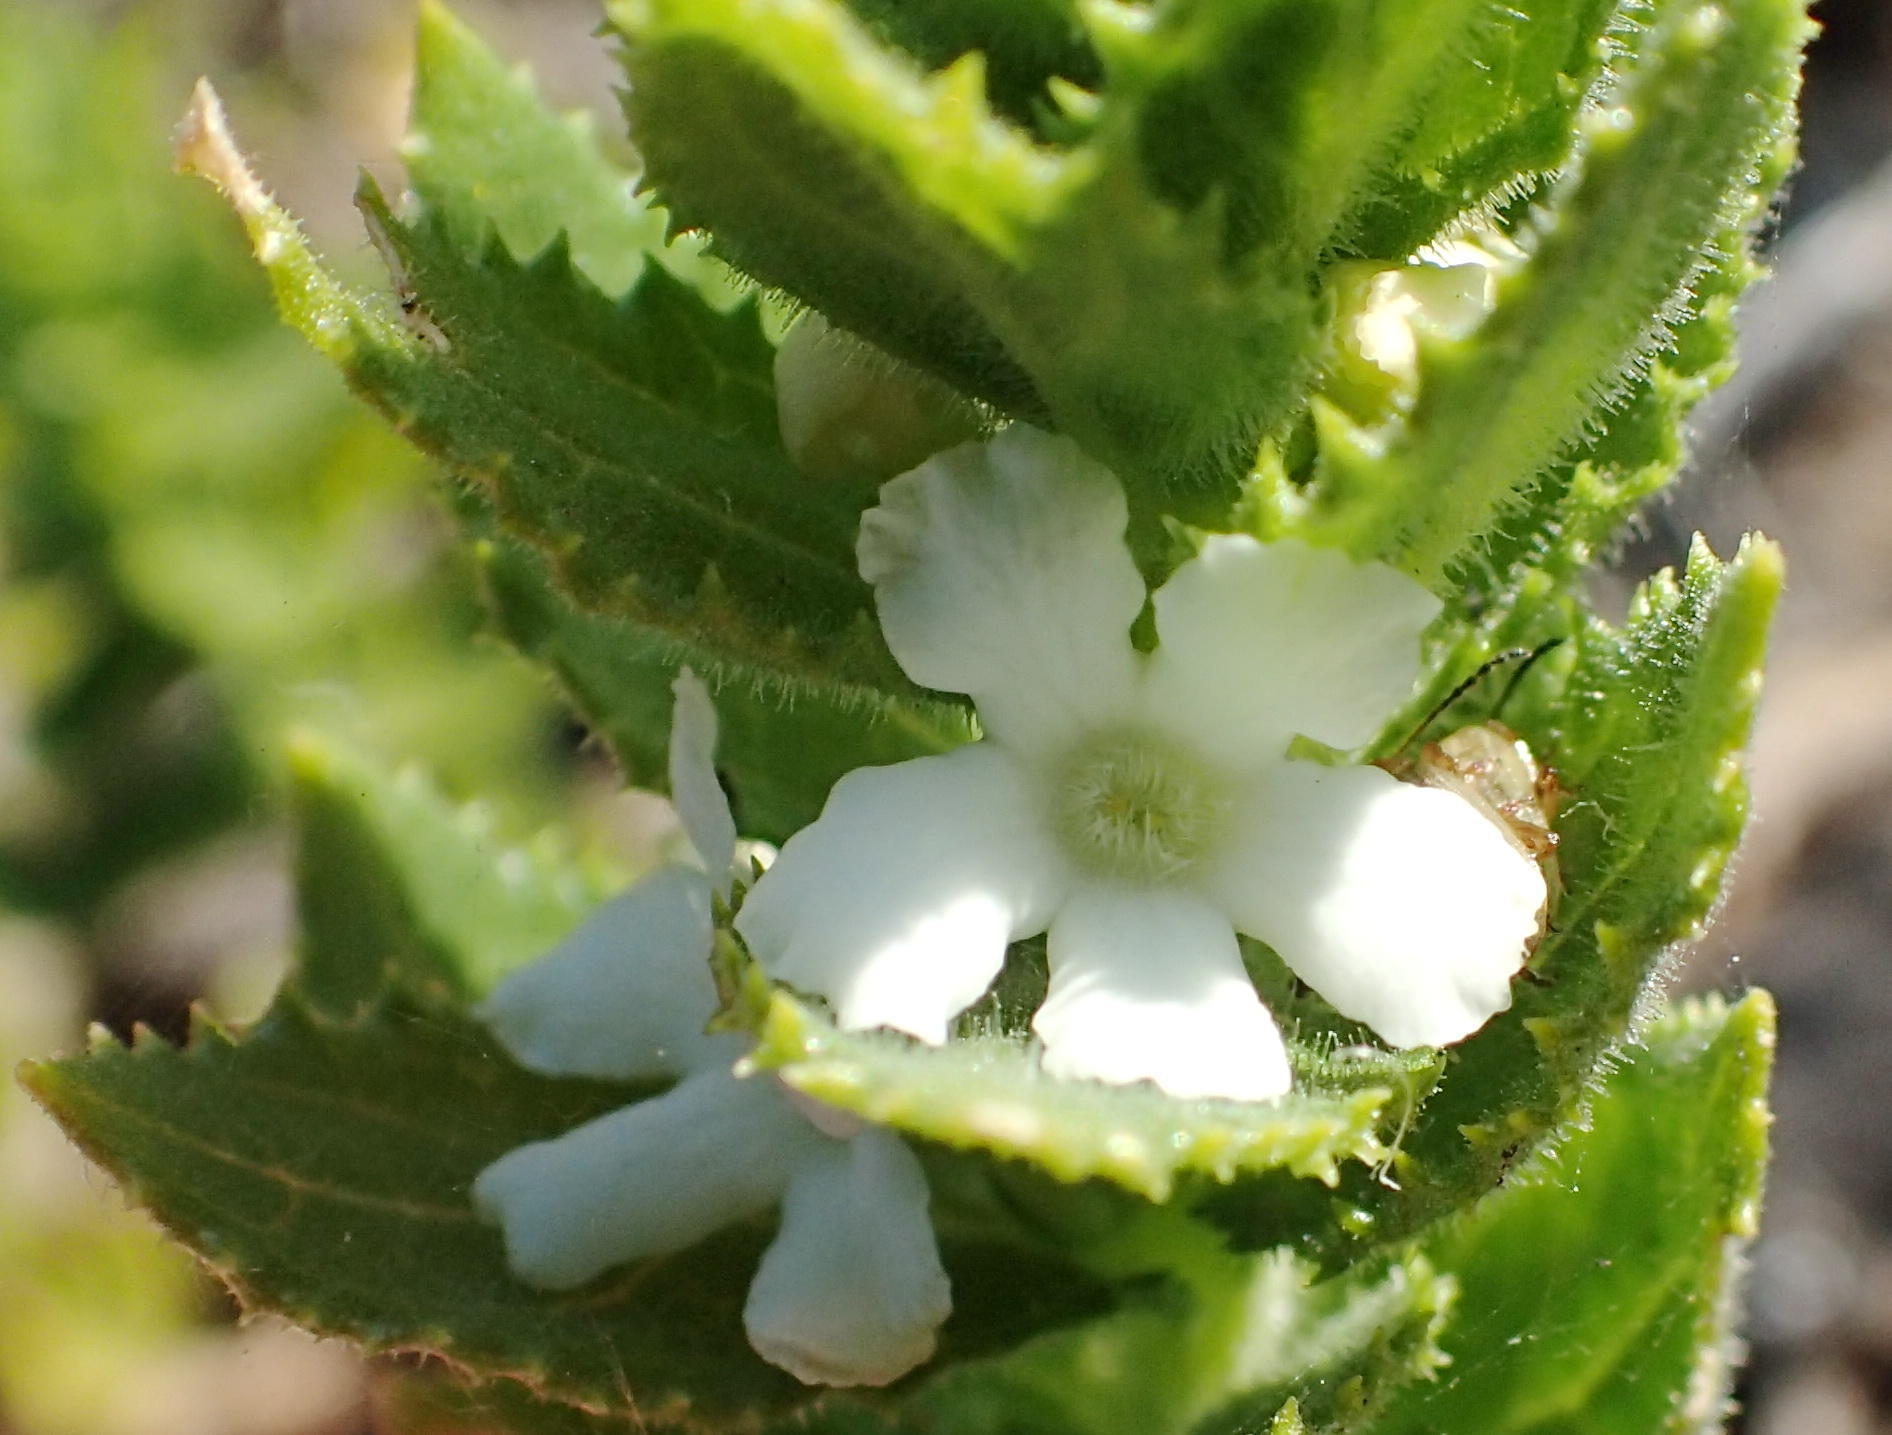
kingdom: Plantae
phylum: Tracheophyta
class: Magnoliopsida
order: Lamiales
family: Scrophulariaceae
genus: Oftia
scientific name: Oftia africana
